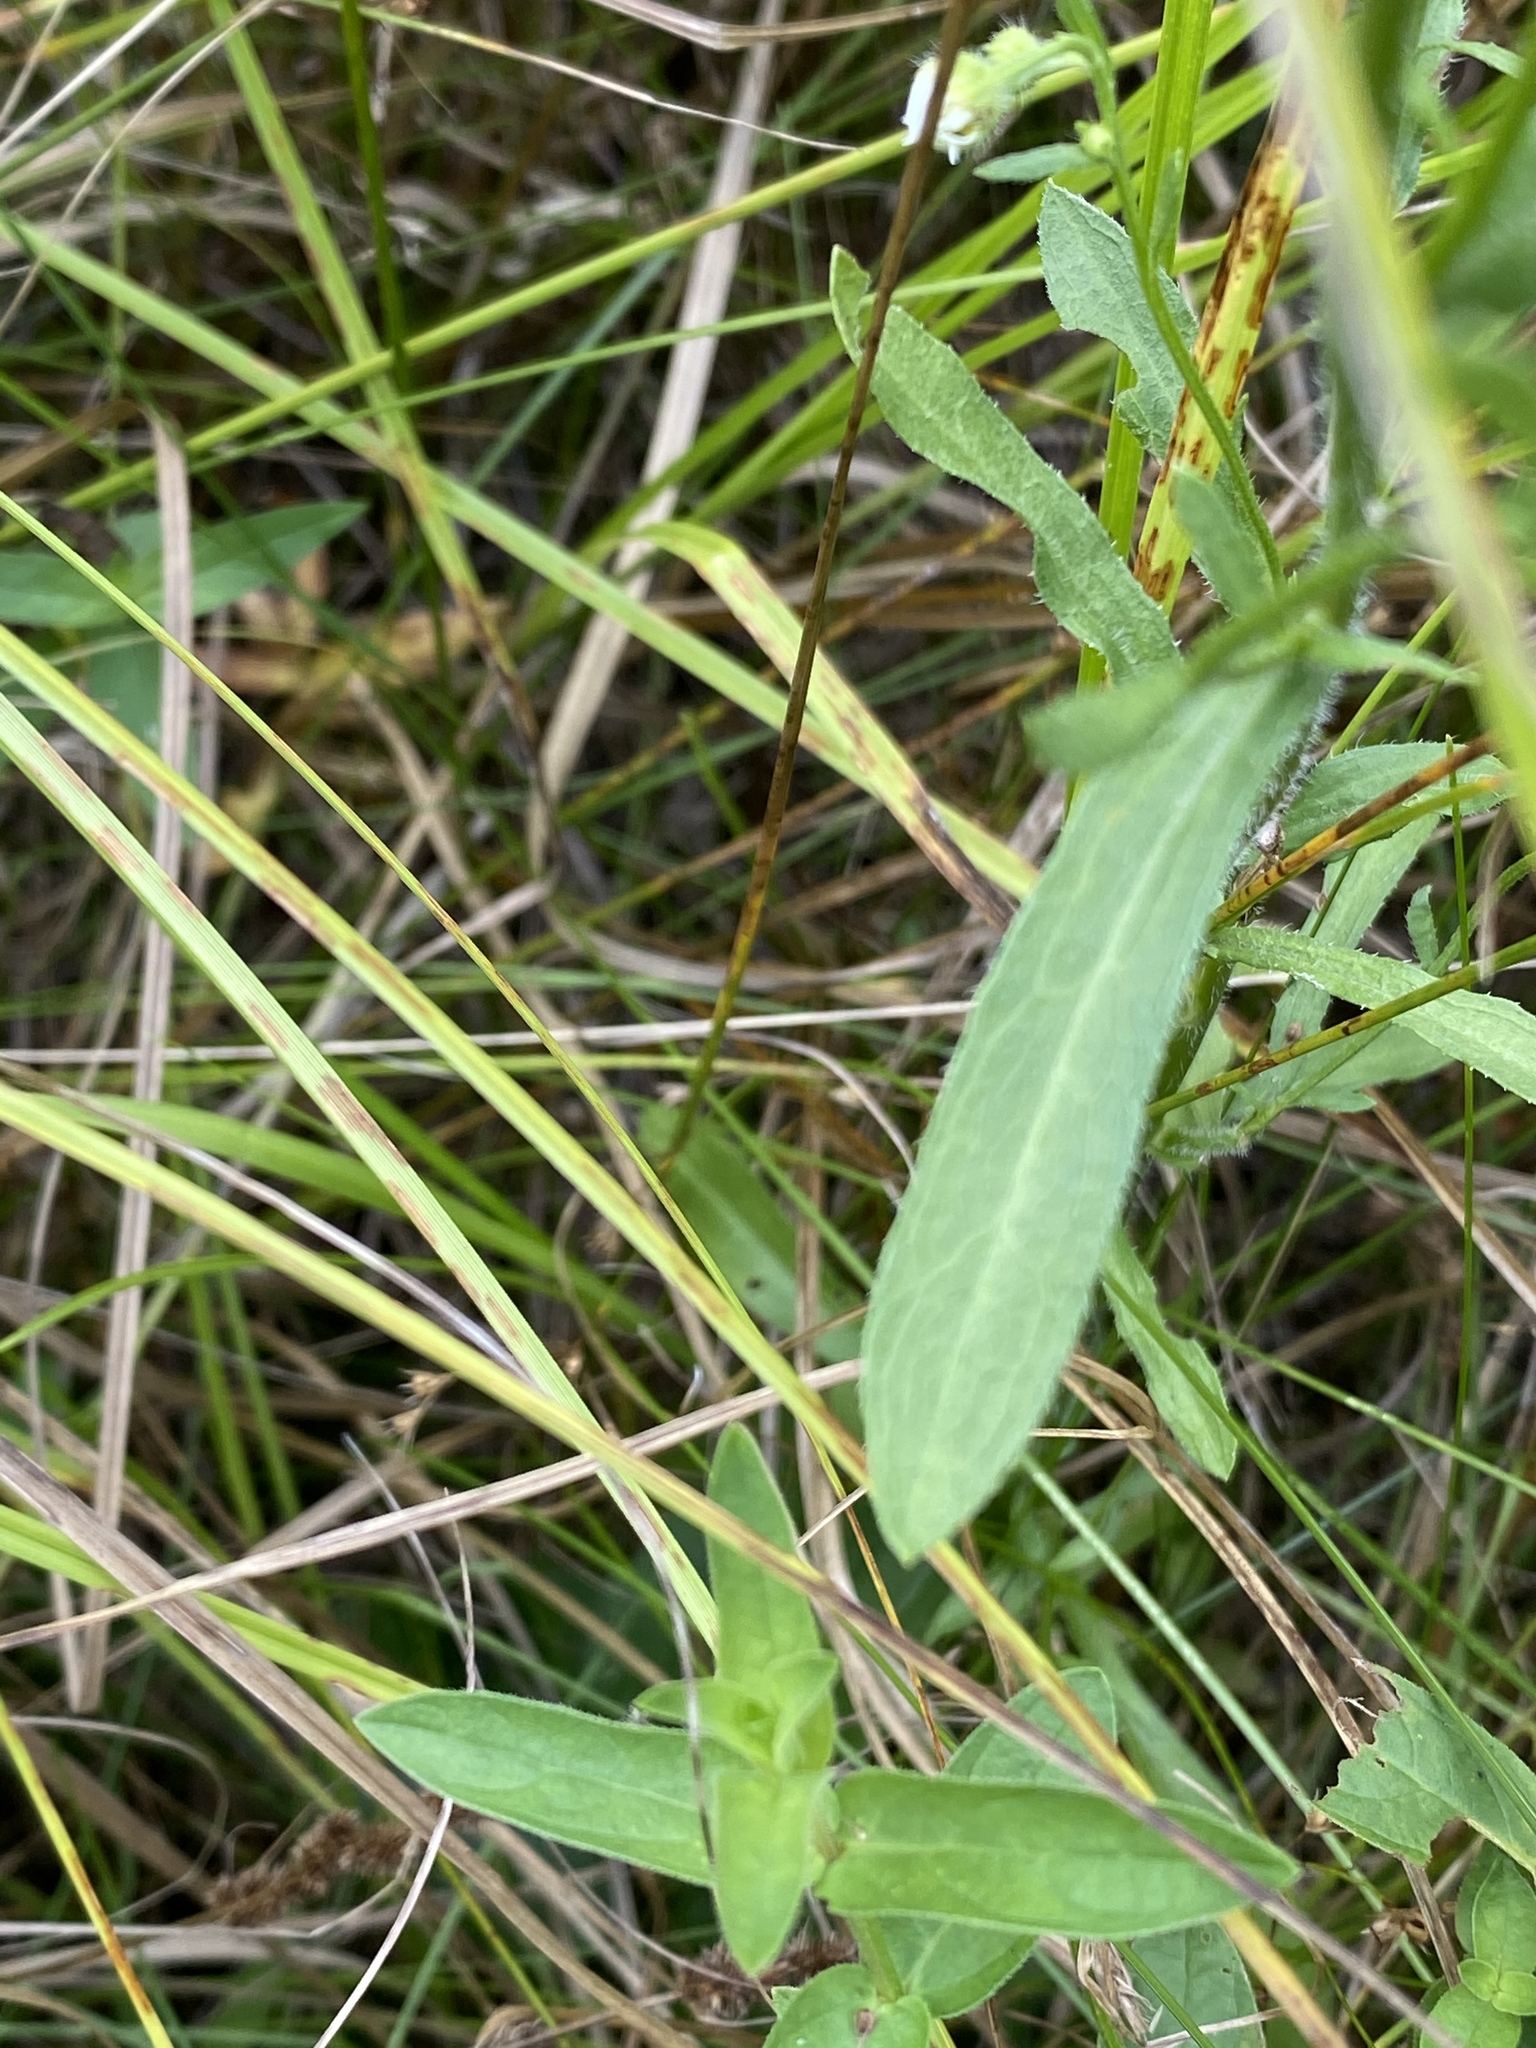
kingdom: Plantae
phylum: Tracheophyta
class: Magnoliopsida
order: Asterales
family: Asteraceae
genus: Erigeron
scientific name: Erigeron strigosus
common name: Common eastern fleabane
